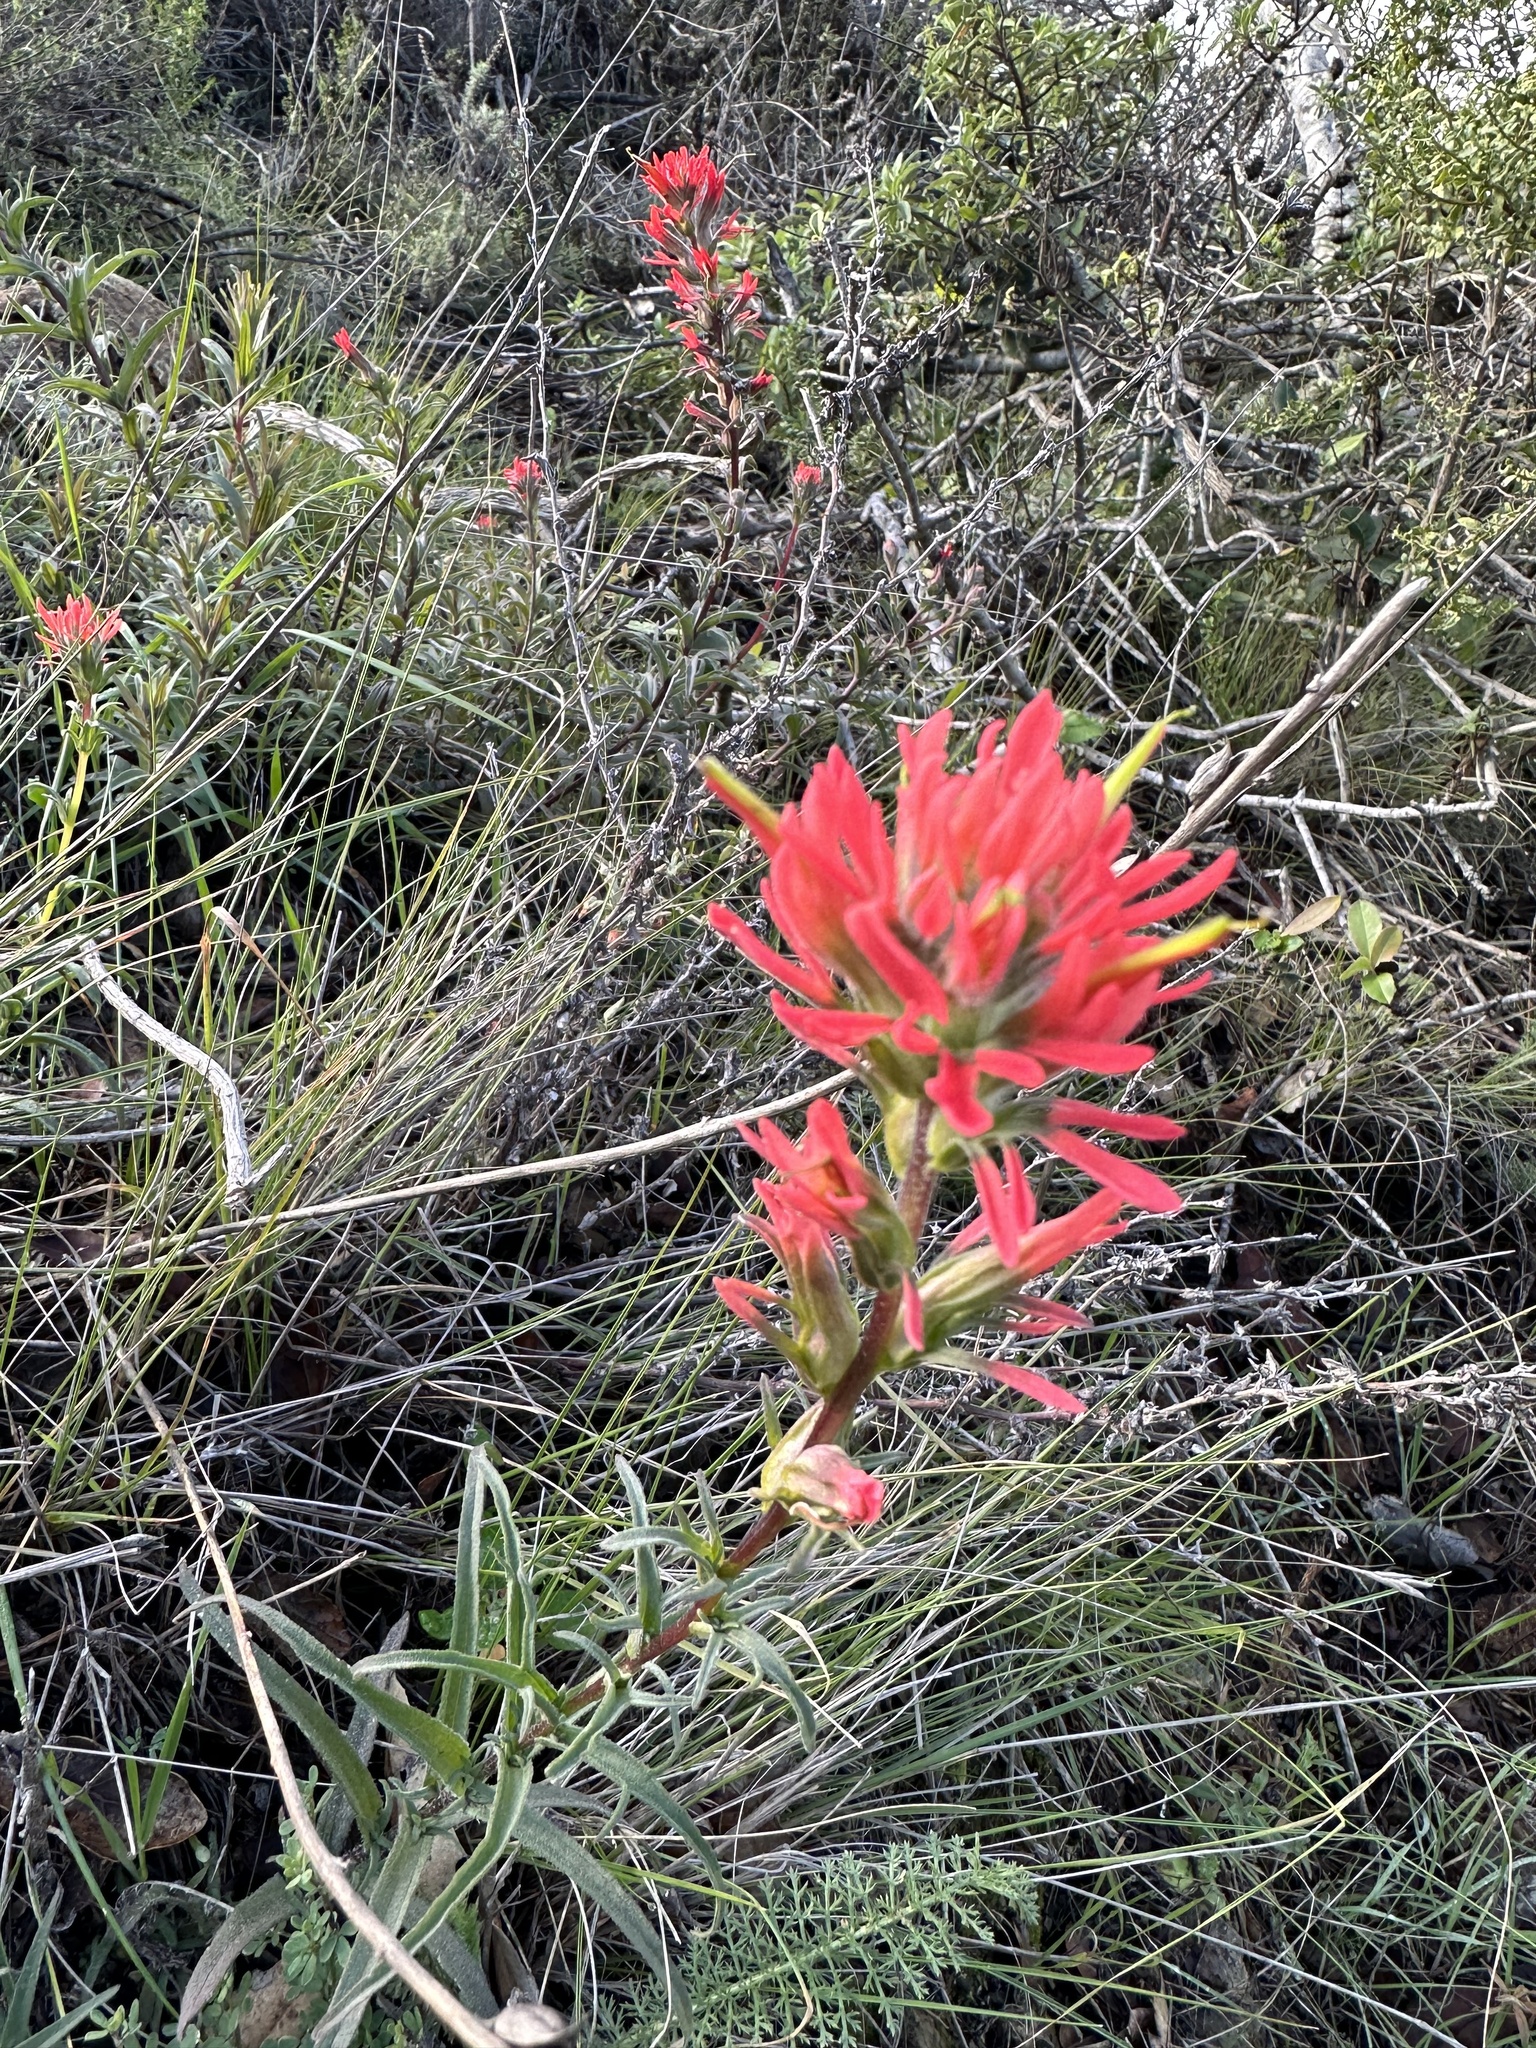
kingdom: Plantae
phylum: Tracheophyta
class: Magnoliopsida
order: Lamiales
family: Orobanchaceae
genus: Castilleja
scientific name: Castilleja affinis
